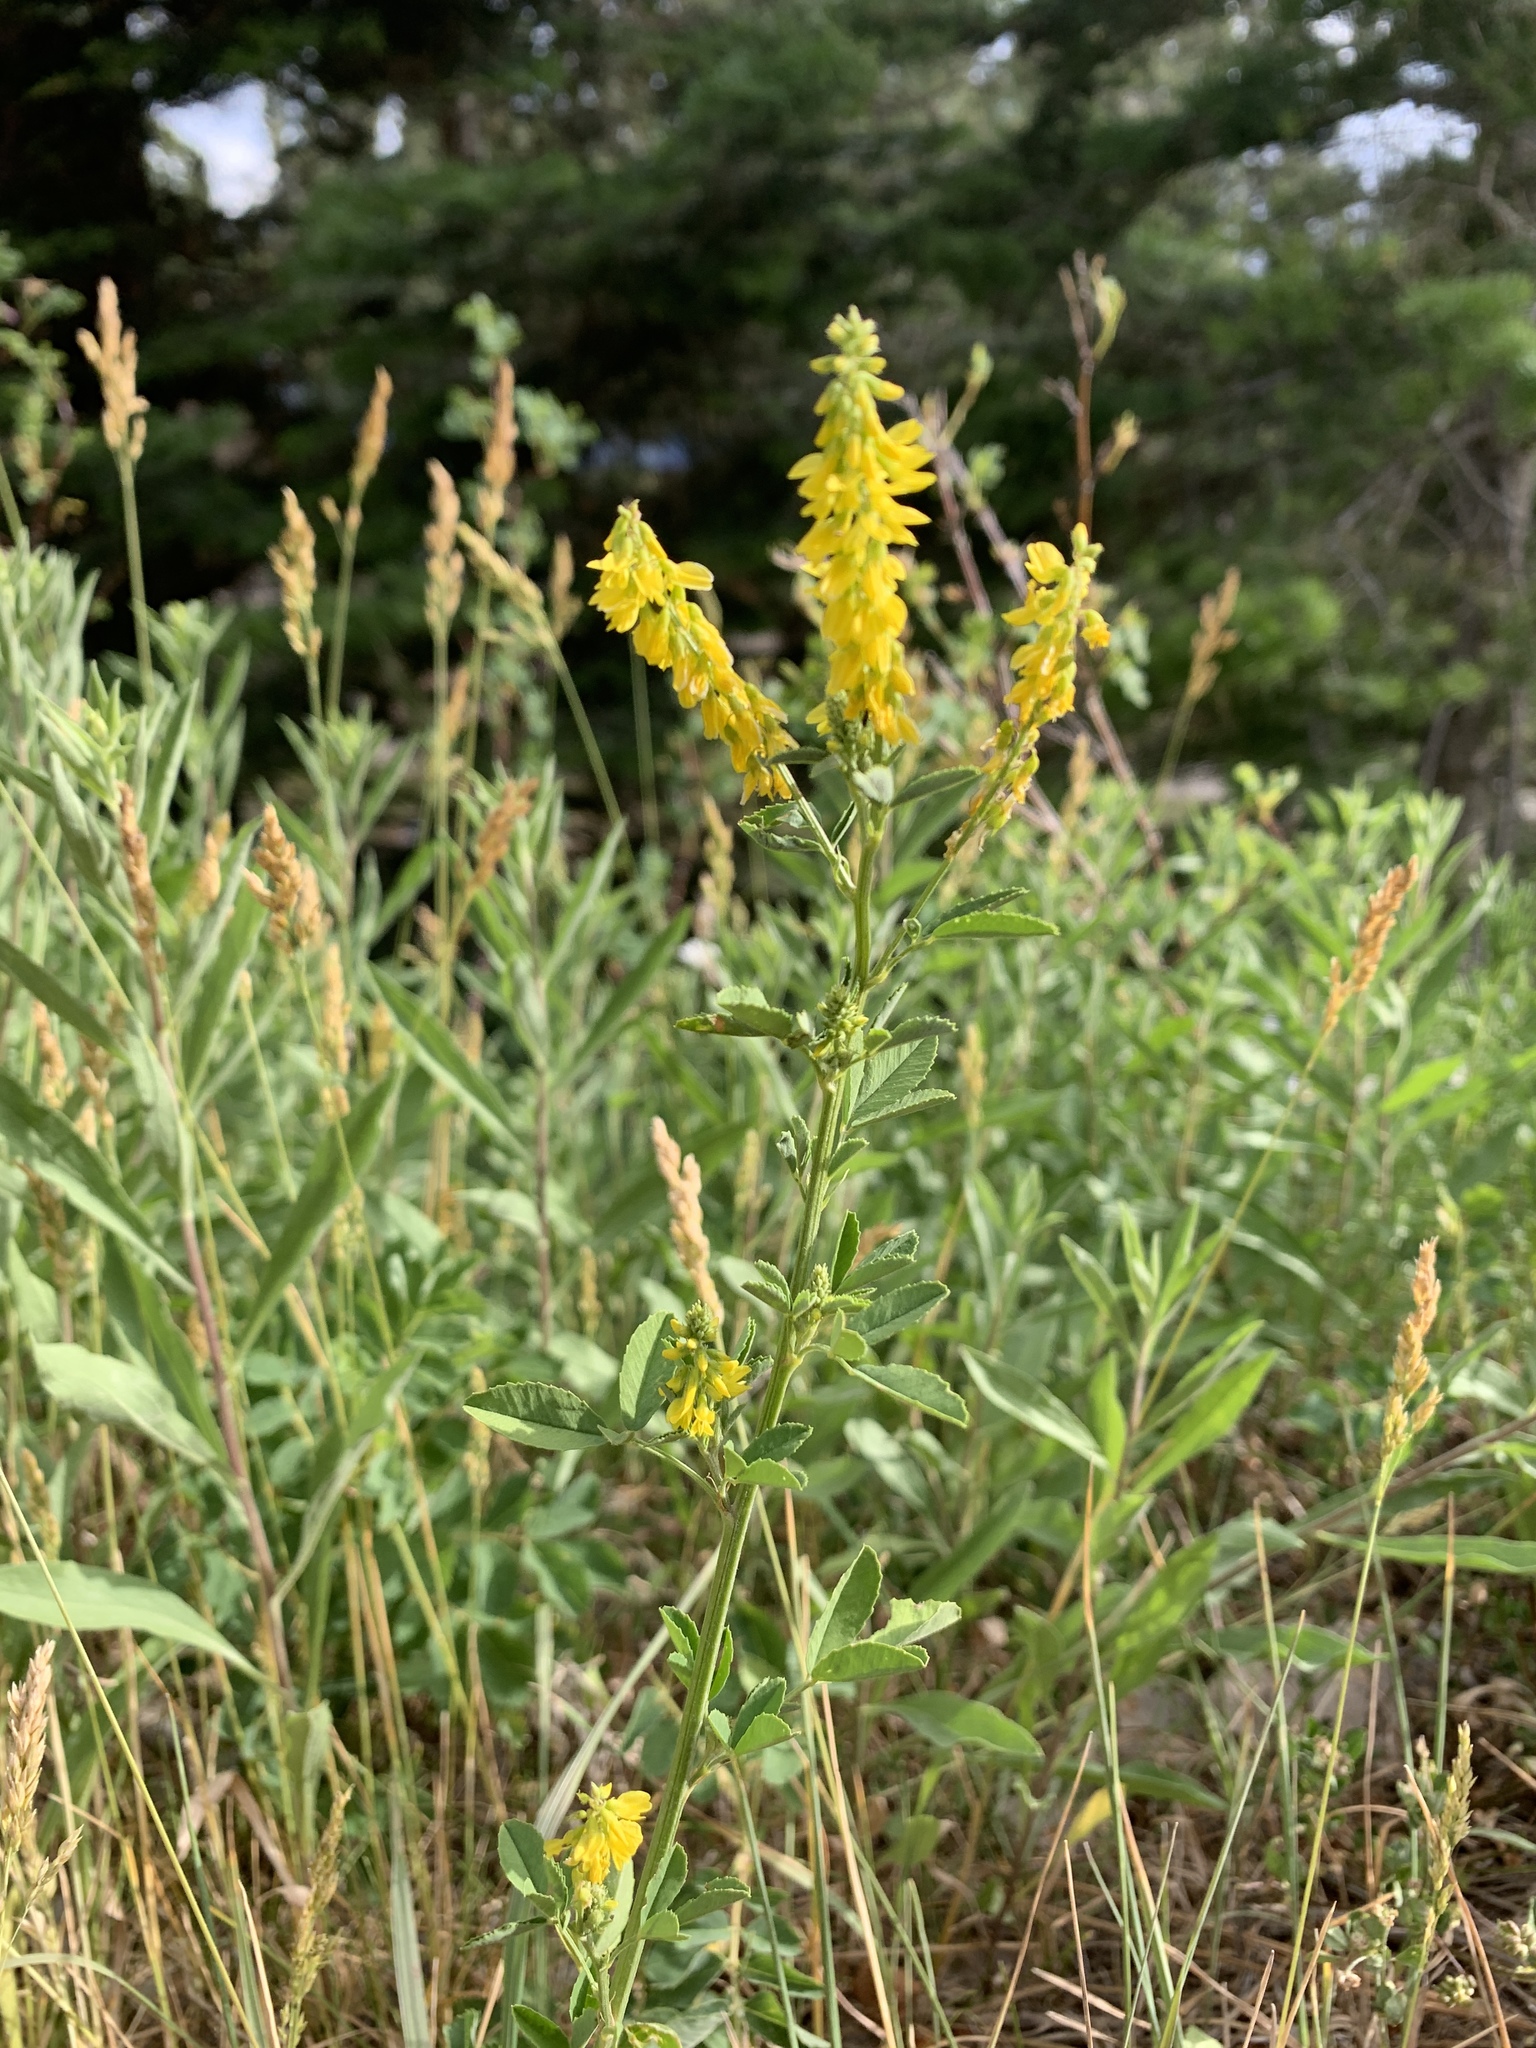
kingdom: Plantae
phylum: Tracheophyta
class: Magnoliopsida
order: Fabales
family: Fabaceae
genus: Melilotus
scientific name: Melilotus officinalis
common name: Sweetclover
